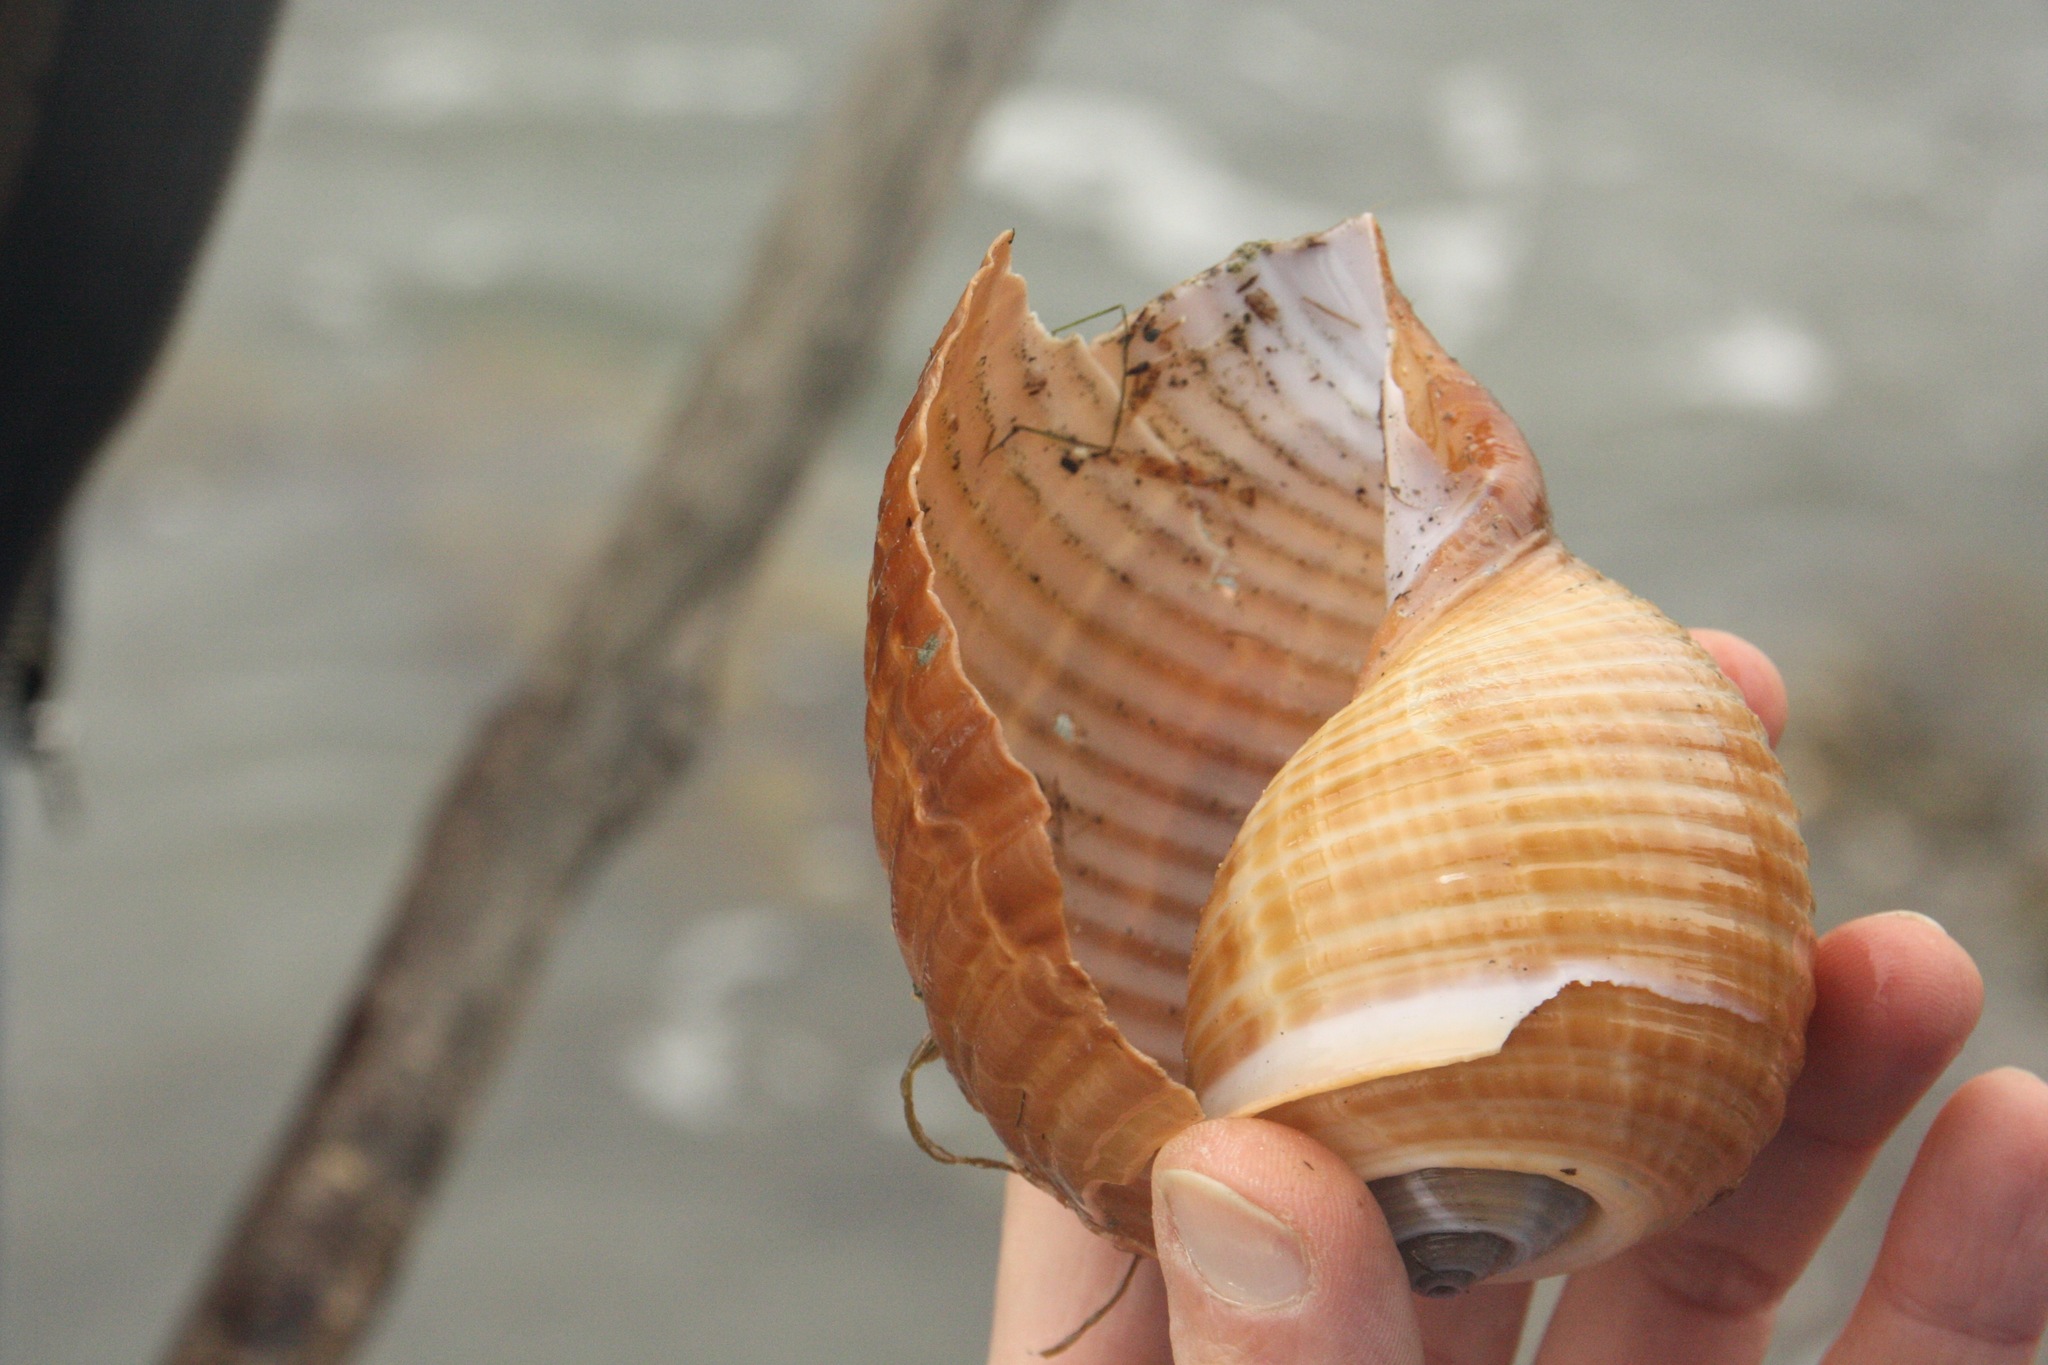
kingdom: Animalia
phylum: Mollusca
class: Gastropoda
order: Littorinimorpha
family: Tonnidae
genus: Tonna
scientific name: Tonna galea
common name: Giant tun
